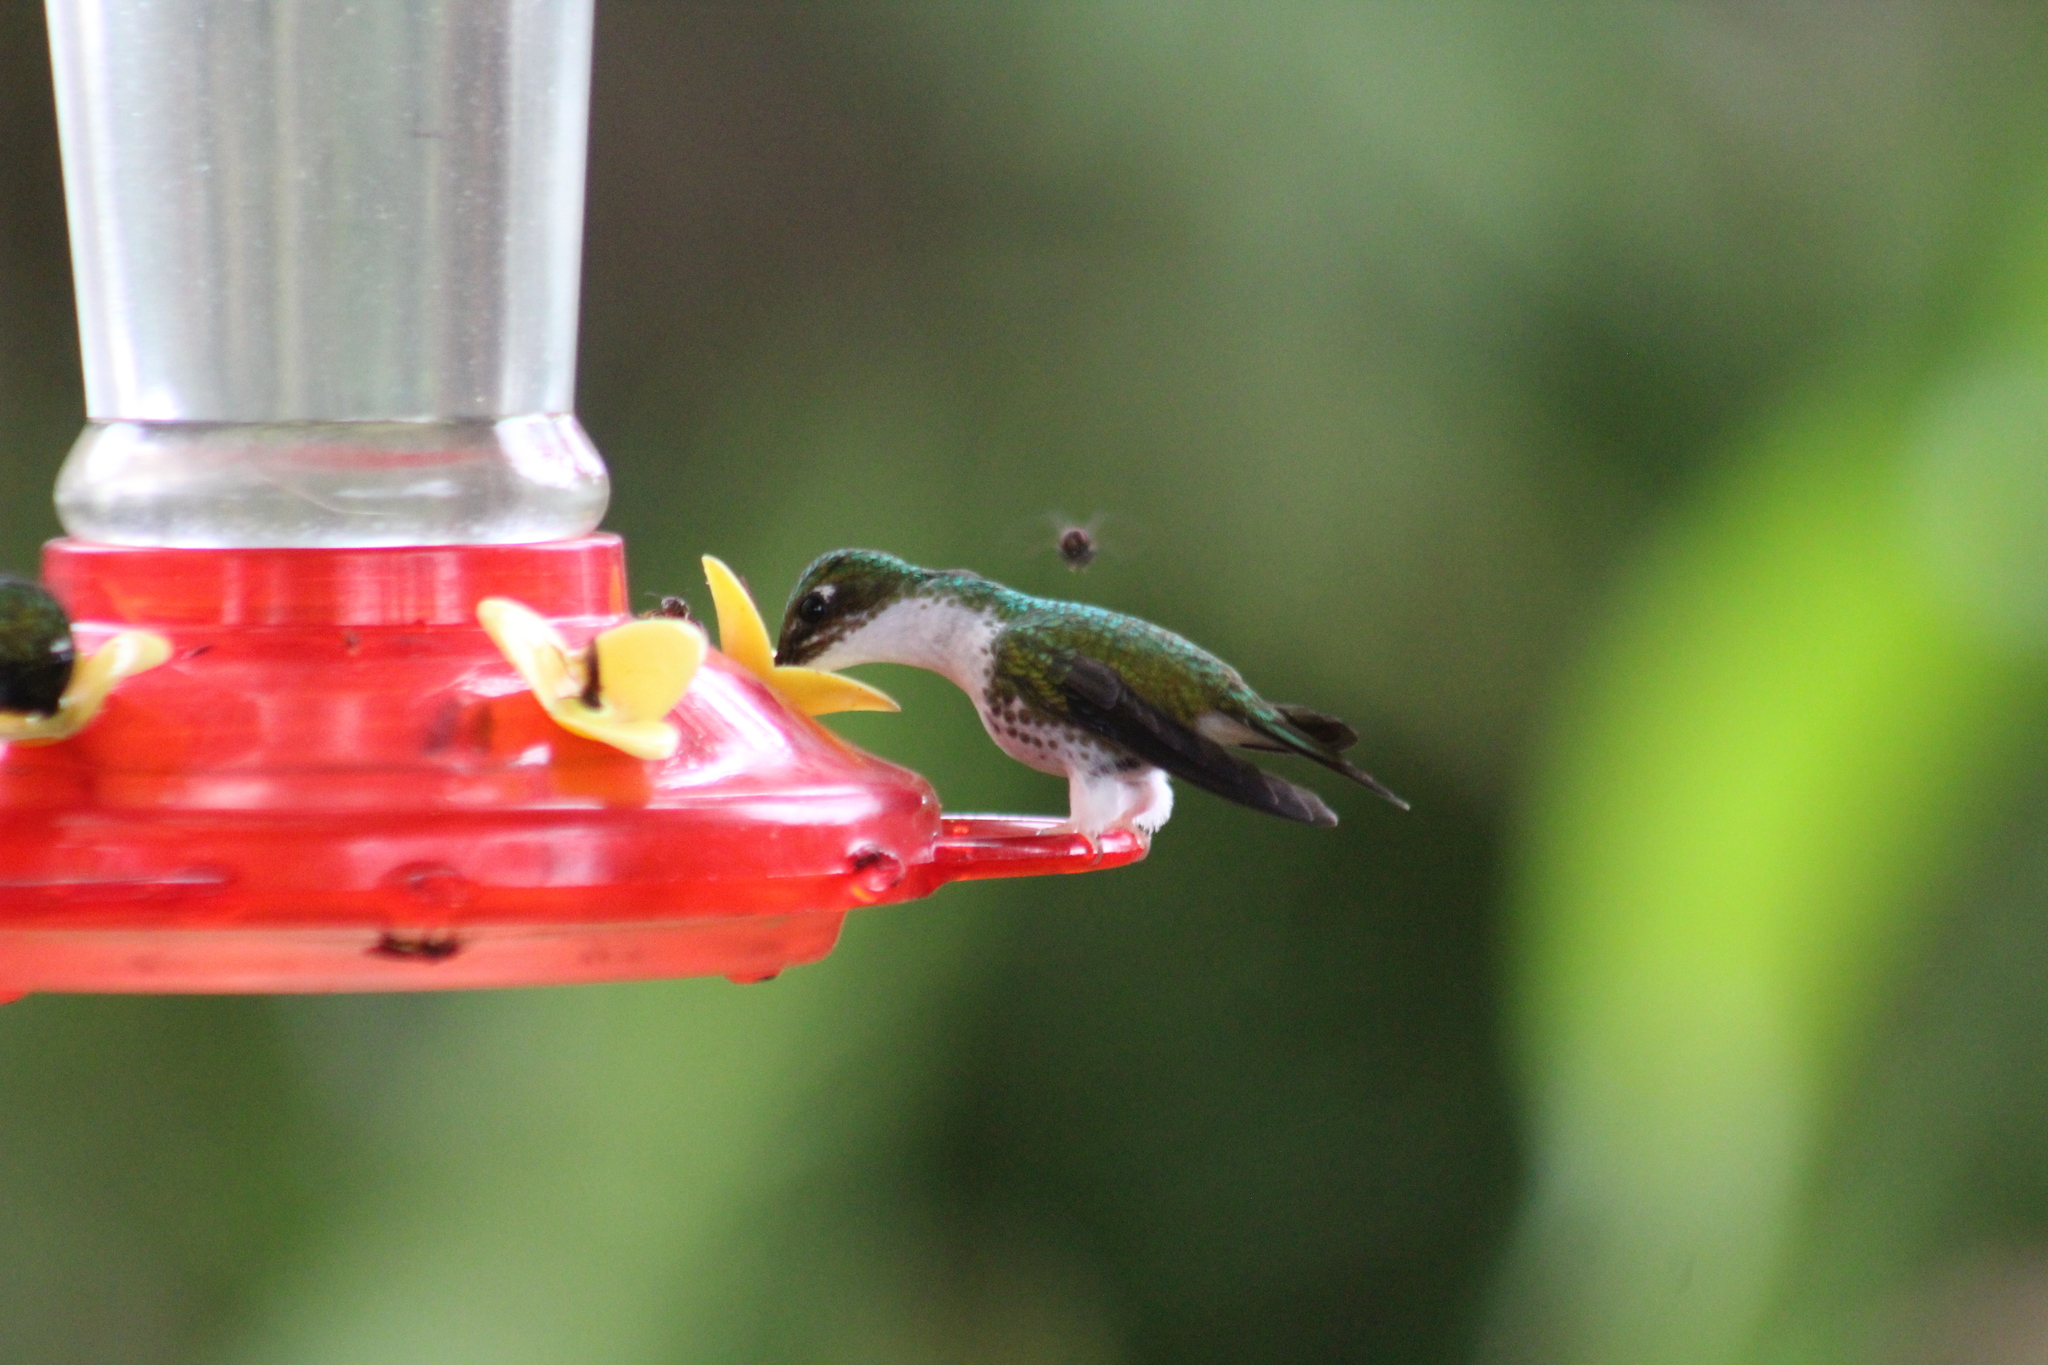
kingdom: Animalia
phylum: Chordata
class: Aves
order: Apodiformes
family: Trochilidae
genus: Ocreatus
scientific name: Ocreatus underwoodii
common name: Booted racket-tail
